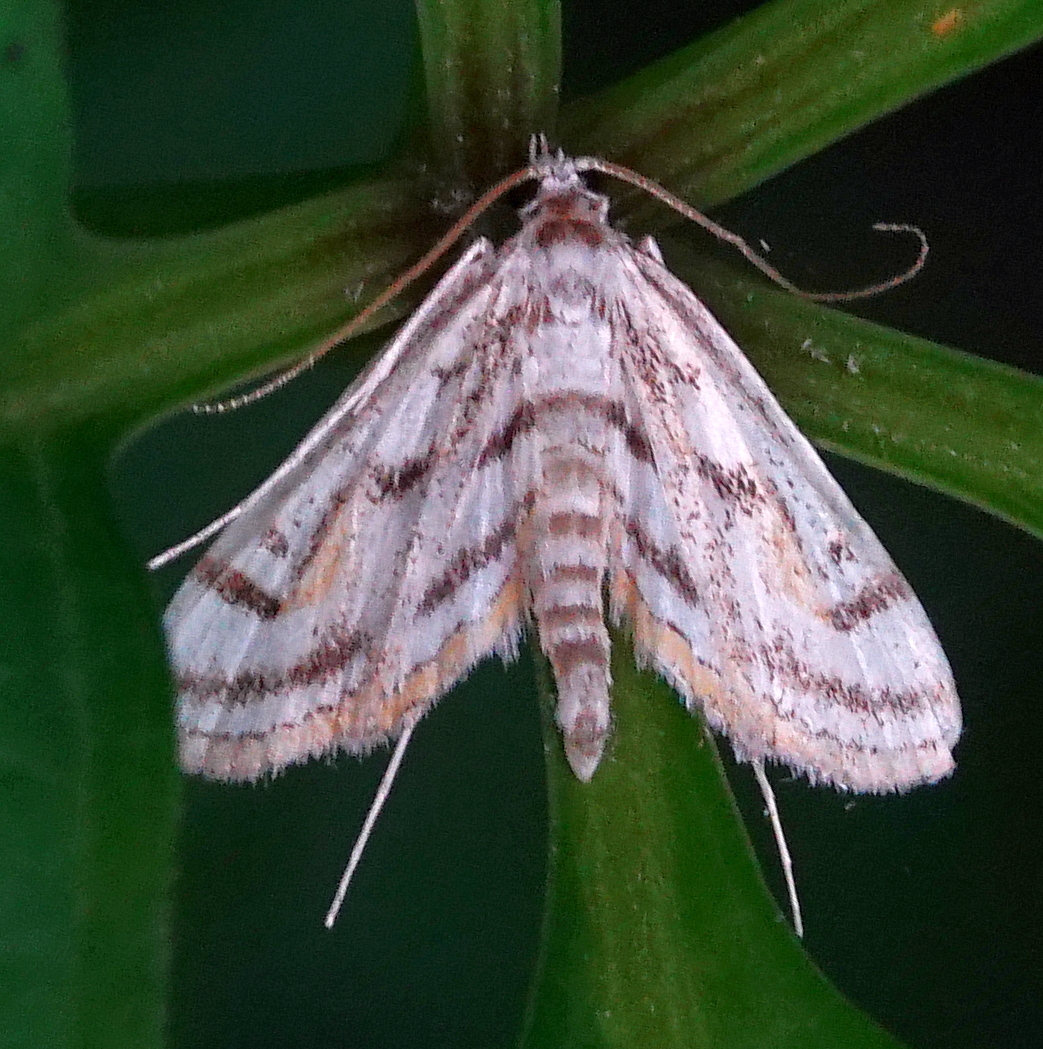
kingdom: Animalia
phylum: Arthropoda
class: Insecta
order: Lepidoptera
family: Crambidae
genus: Parapoynx
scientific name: Parapoynx badiusalis
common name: Chestnut-marked pondweed moth
